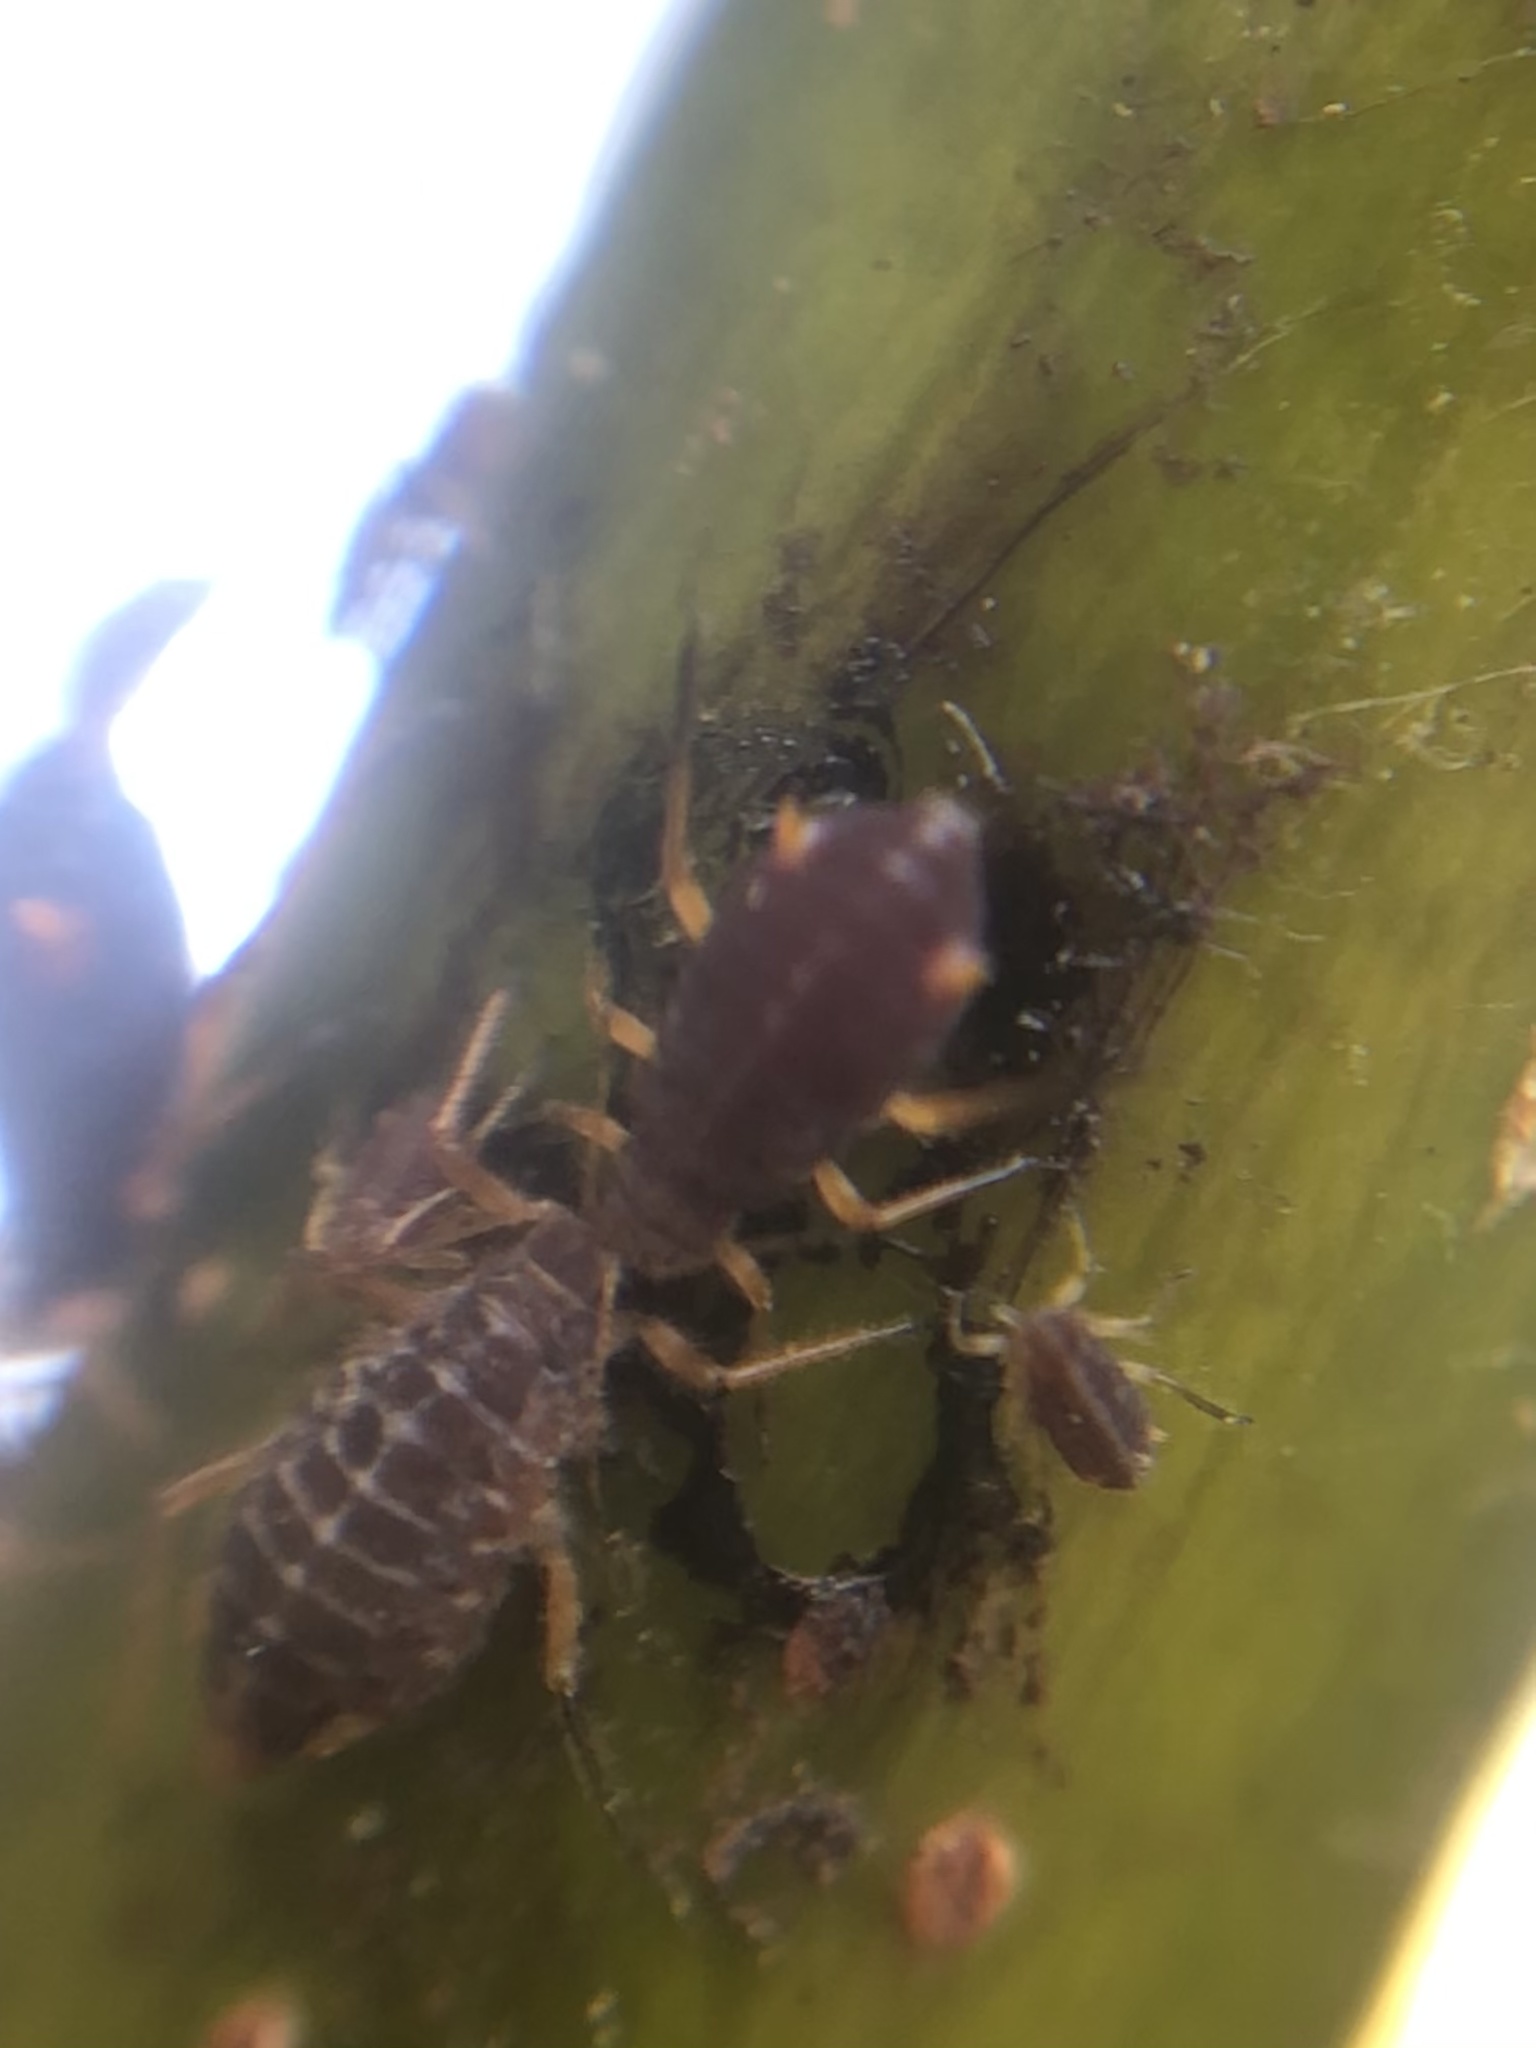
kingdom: Animalia
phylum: Arthropoda
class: Insecta
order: Hemiptera
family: Aphididae
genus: Pterocomma
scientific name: Pterocomma smithiae
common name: Black willow aphid
